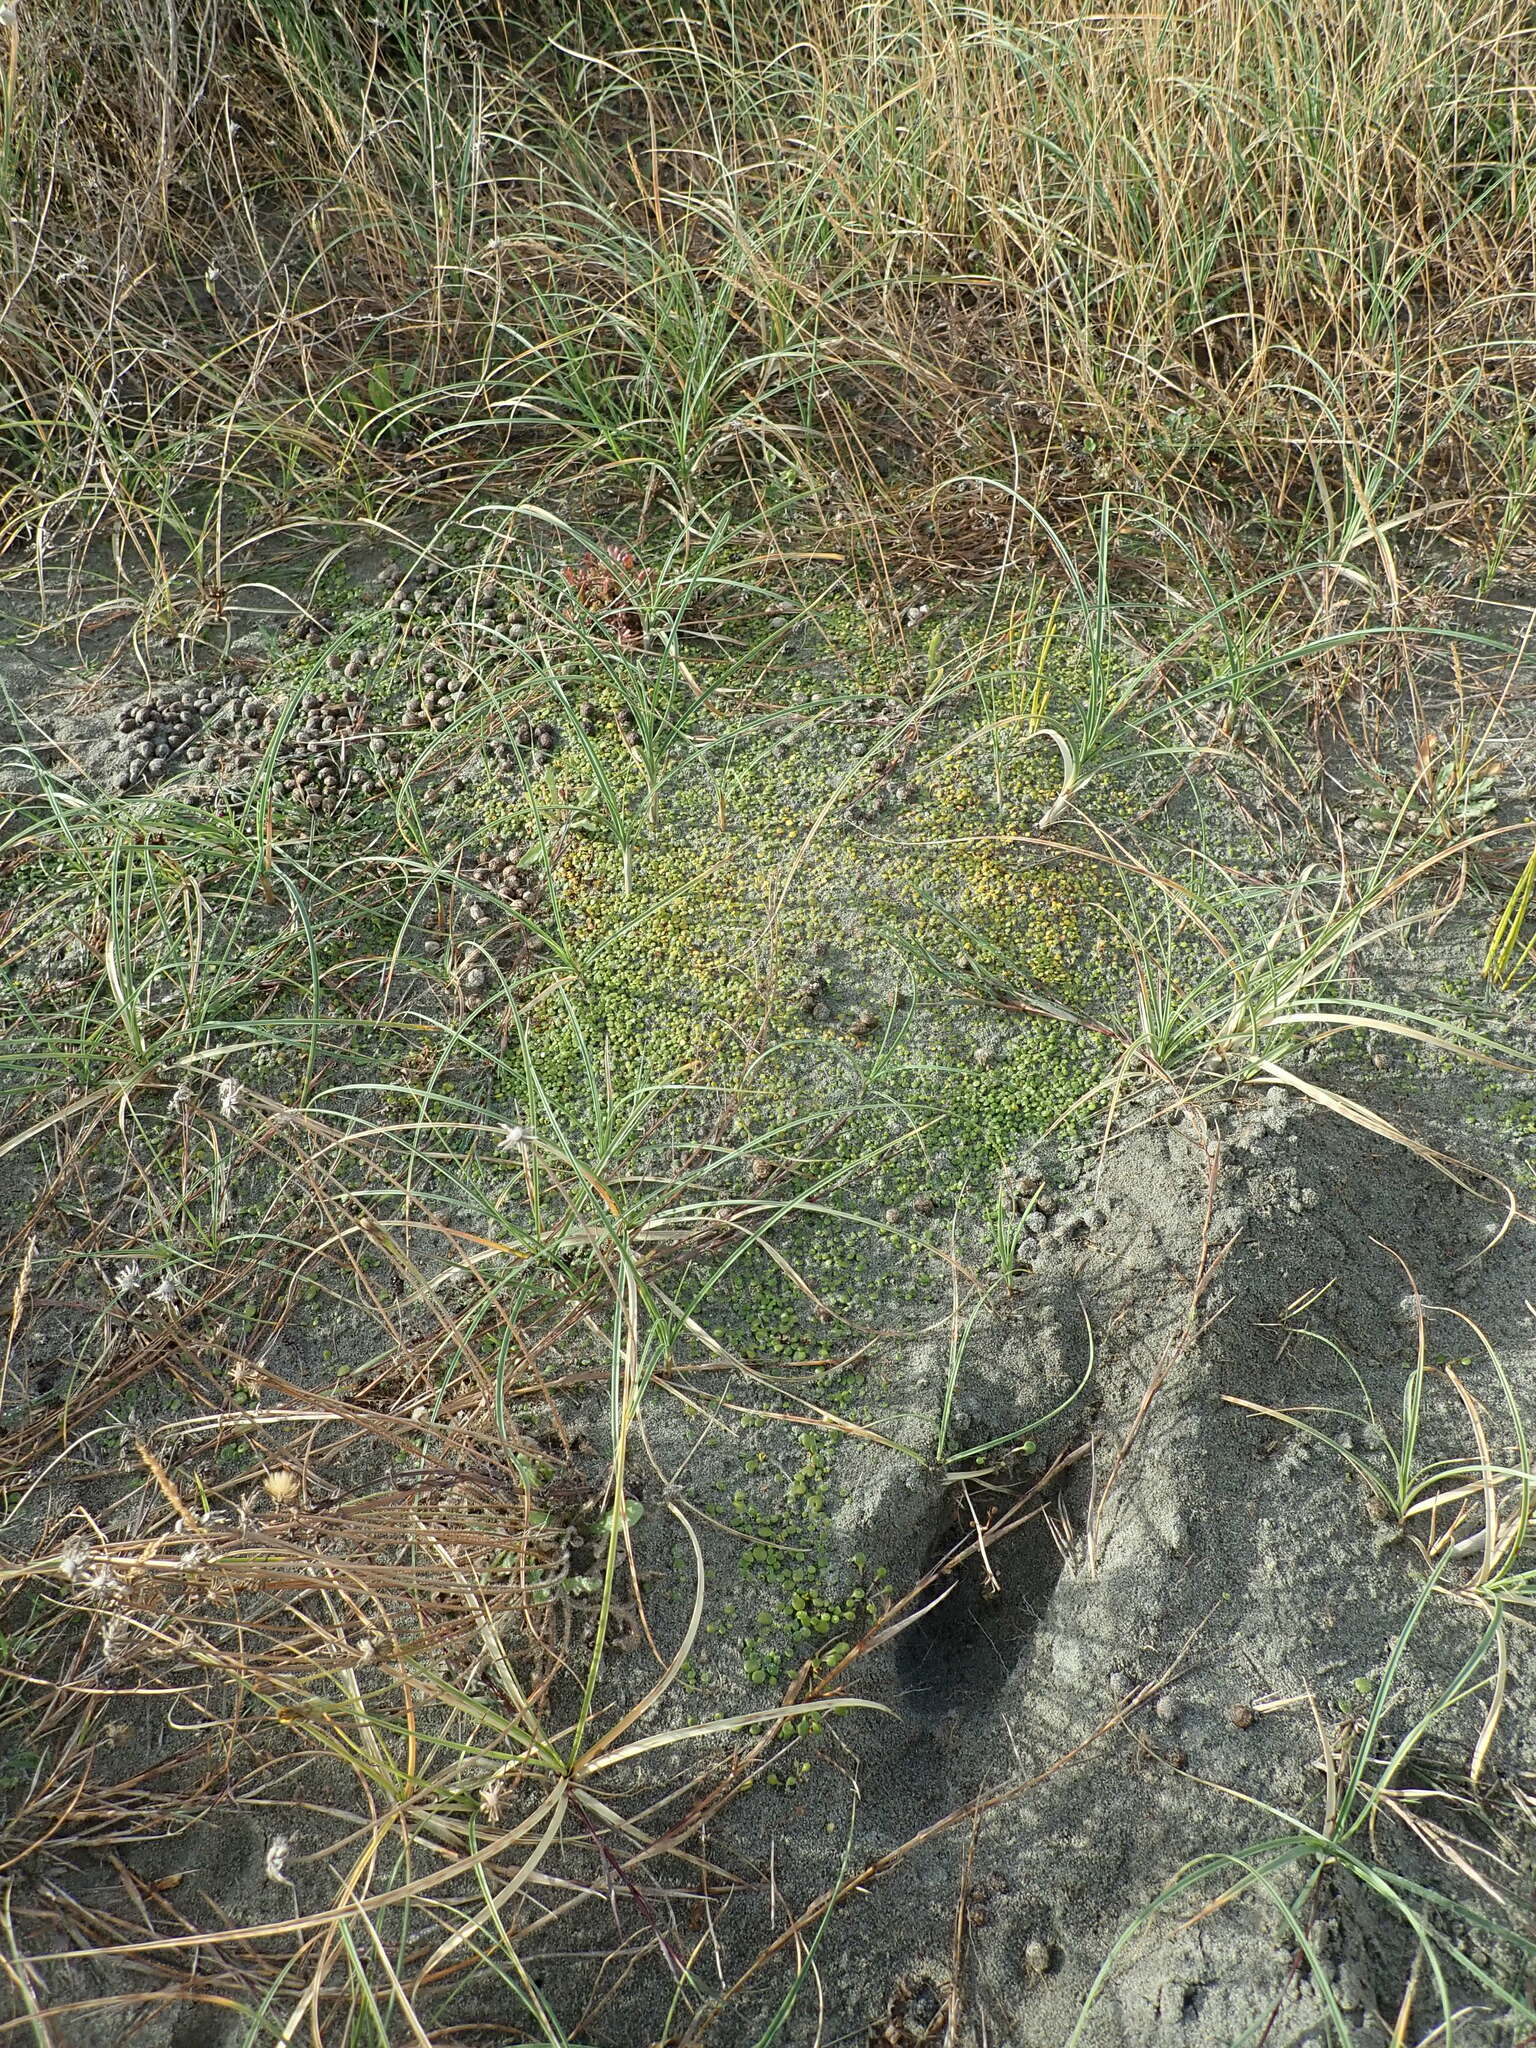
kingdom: Plantae
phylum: Tracheophyta
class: Magnoliopsida
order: Asterales
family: Goodeniaceae
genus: Goodenia
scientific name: Goodenia heenanii
